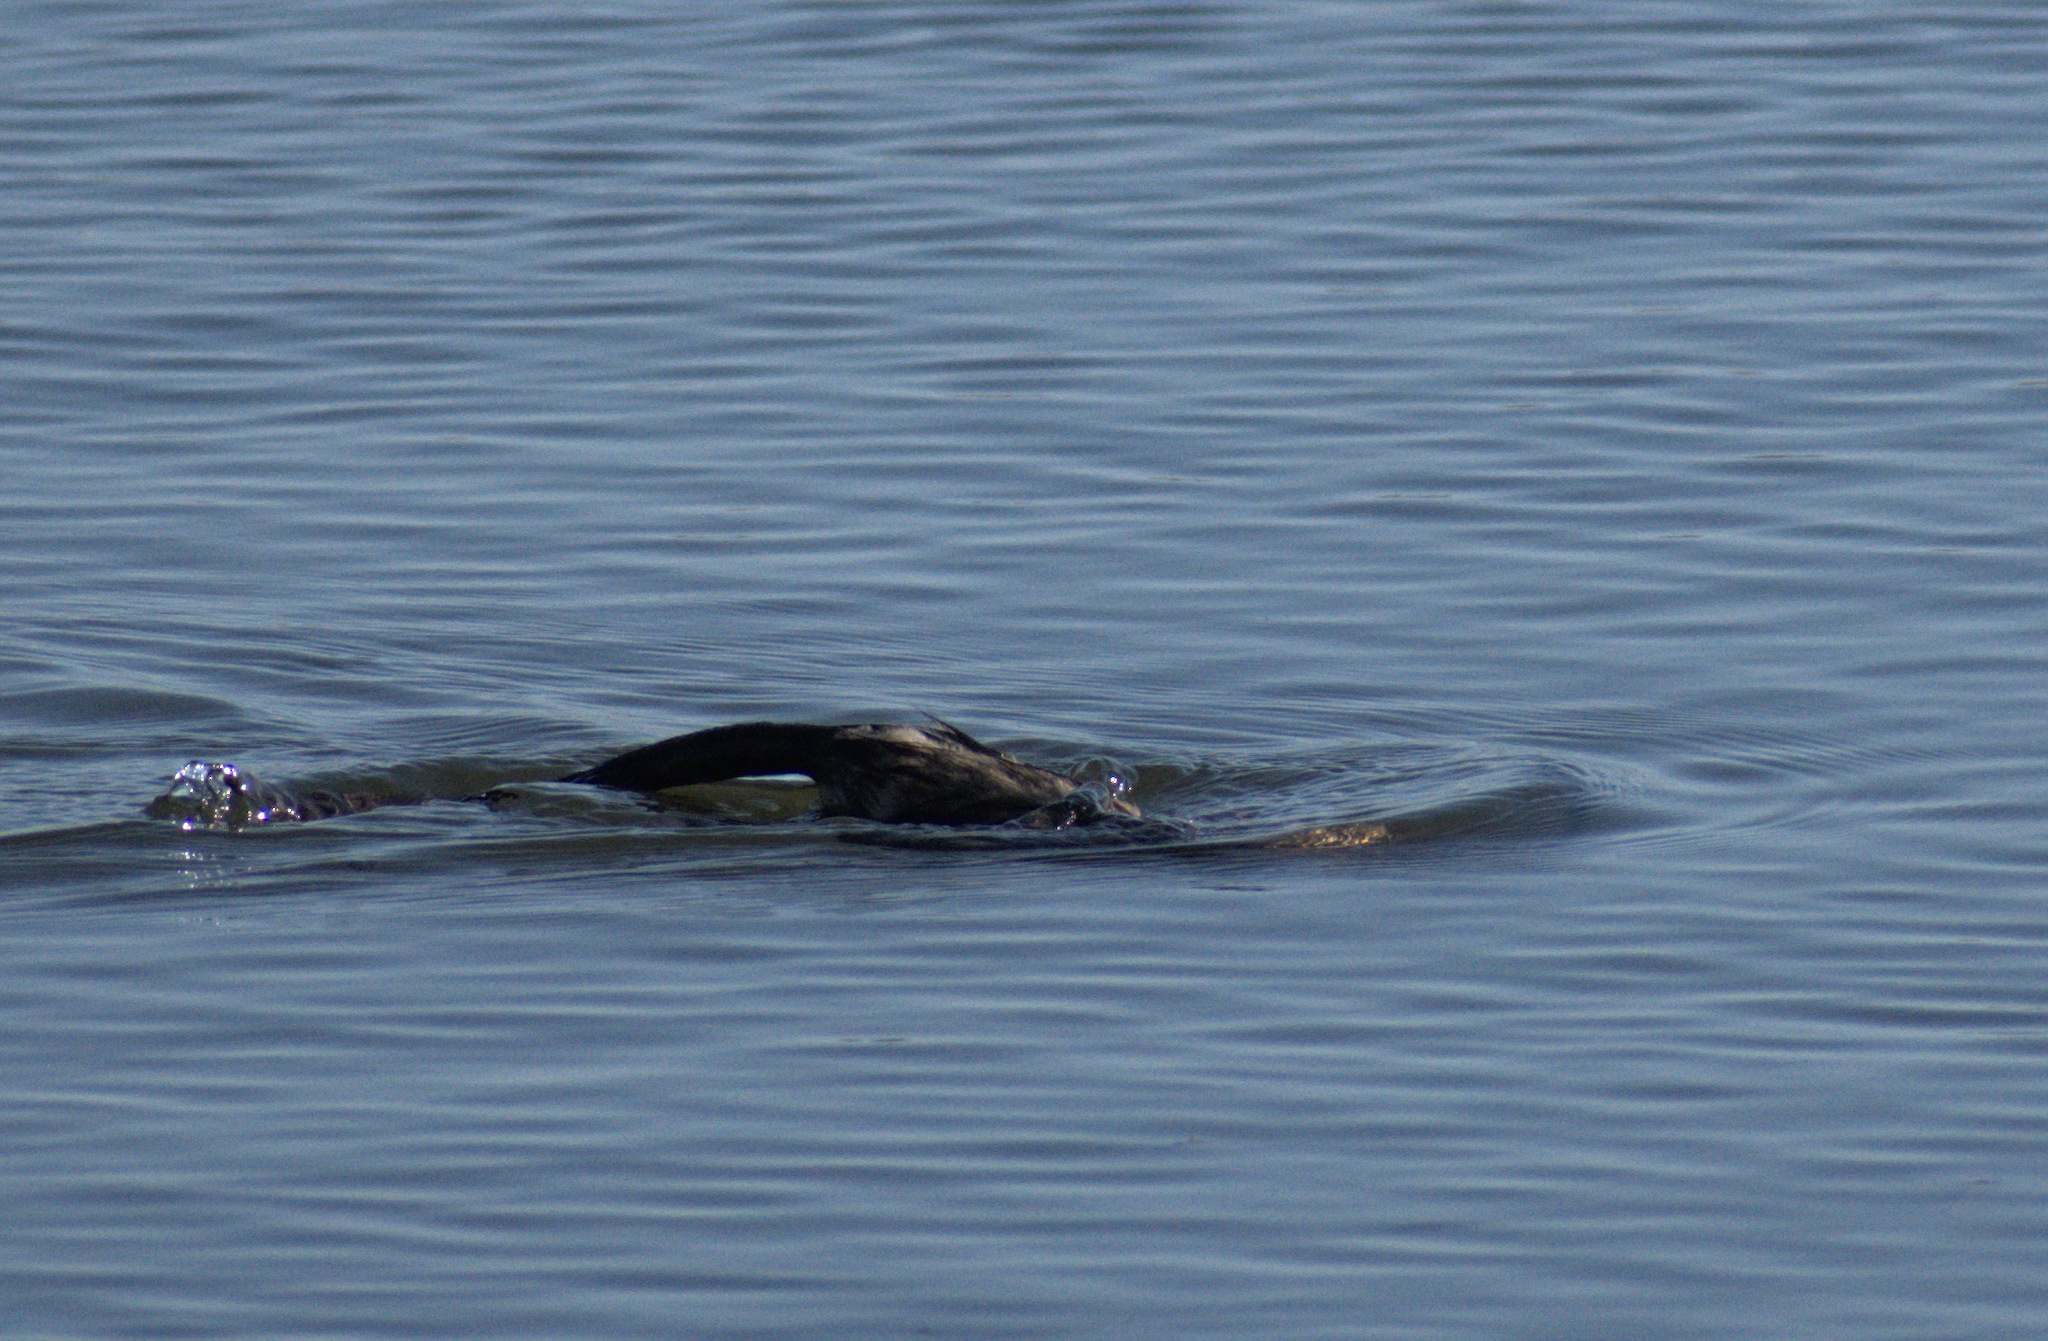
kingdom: Animalia
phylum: Chordata
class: Mammalia
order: Rodentia
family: Cricetidae
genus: Ondatra
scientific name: Ondatra zibethicus
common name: Muskrat
